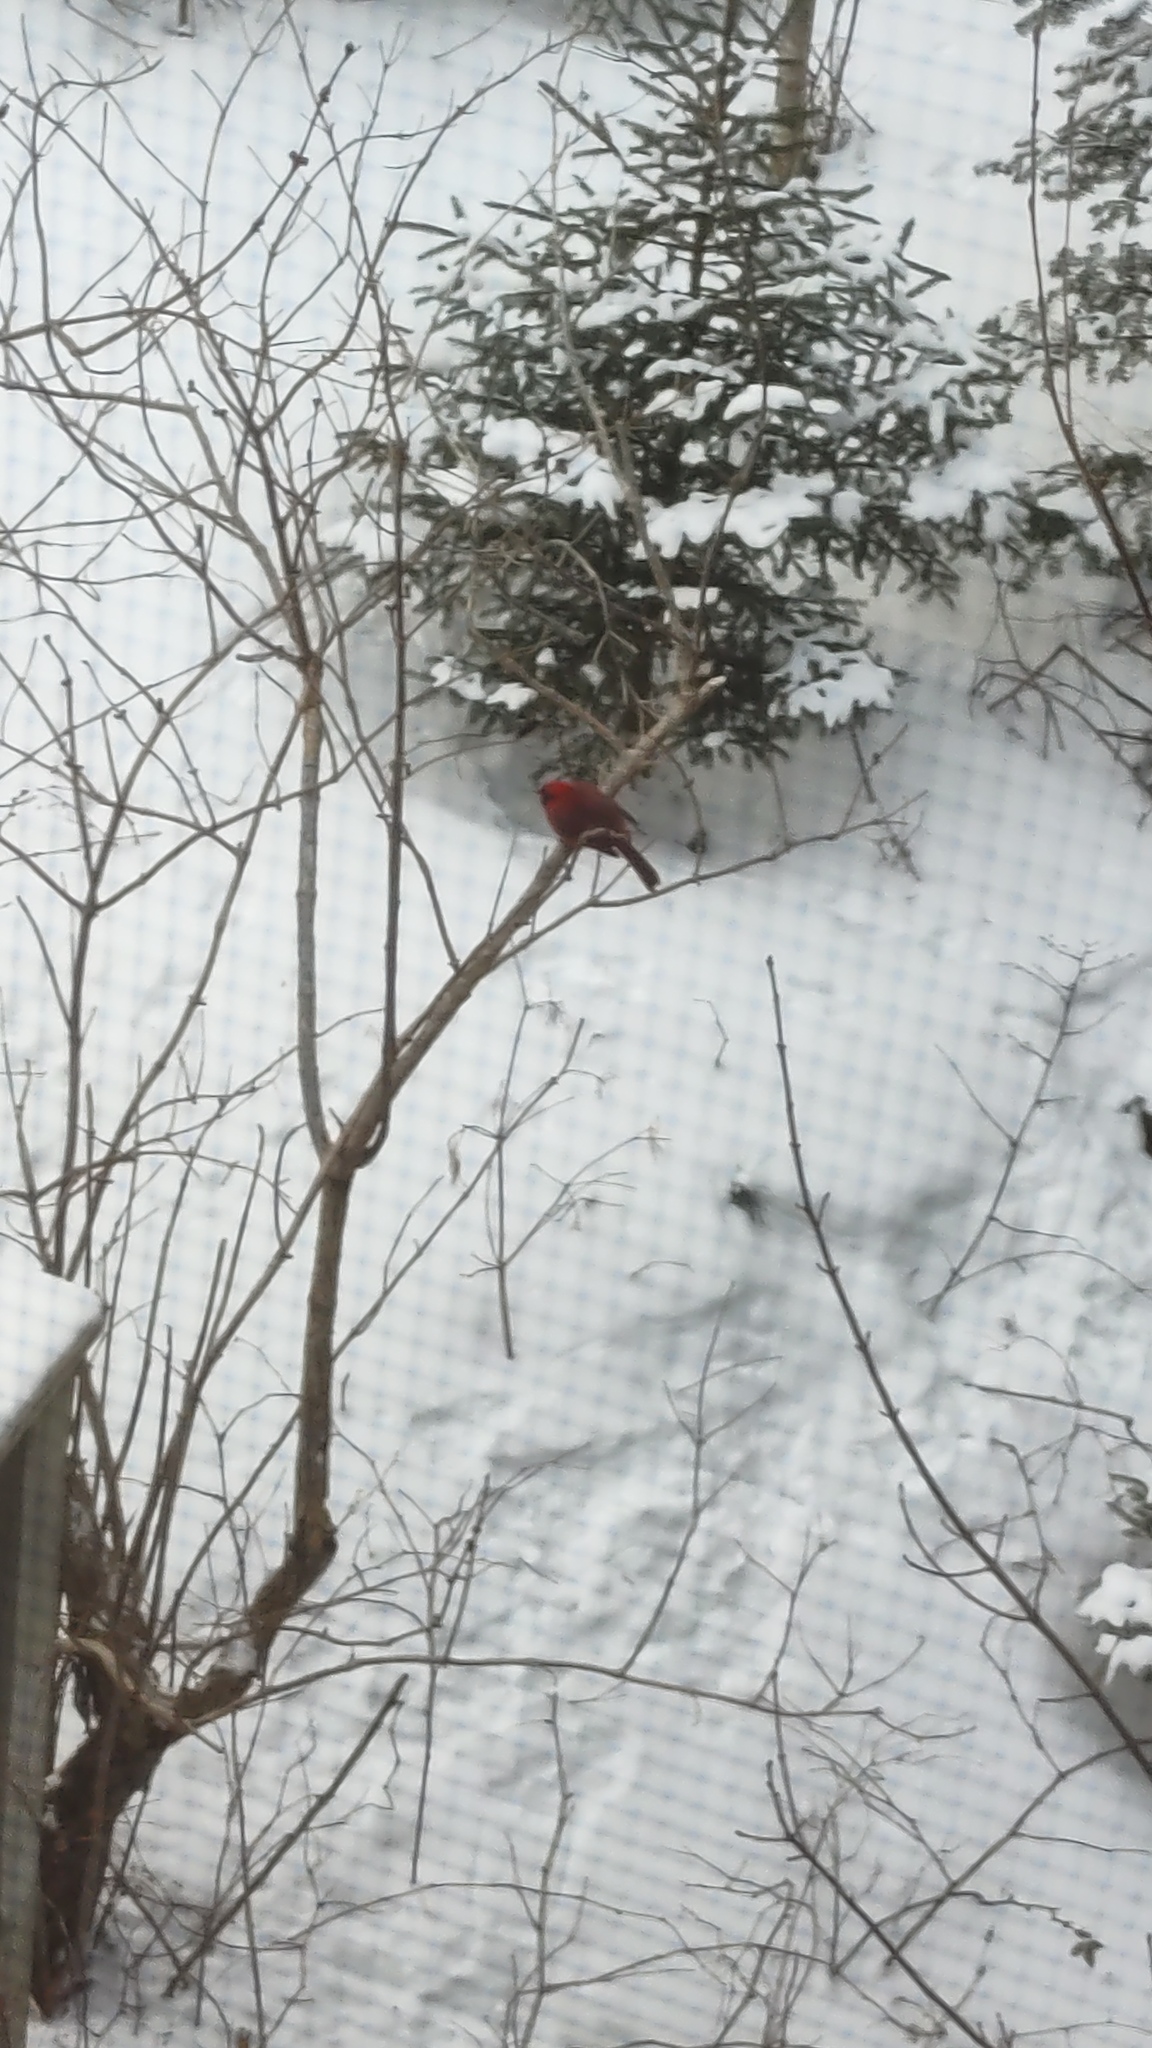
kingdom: Animalia
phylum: Chordata
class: Aves
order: Passeriformes
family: Cardinalidae
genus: Cardinalis
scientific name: Cardinalis cardinalis
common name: Northern cardinal
